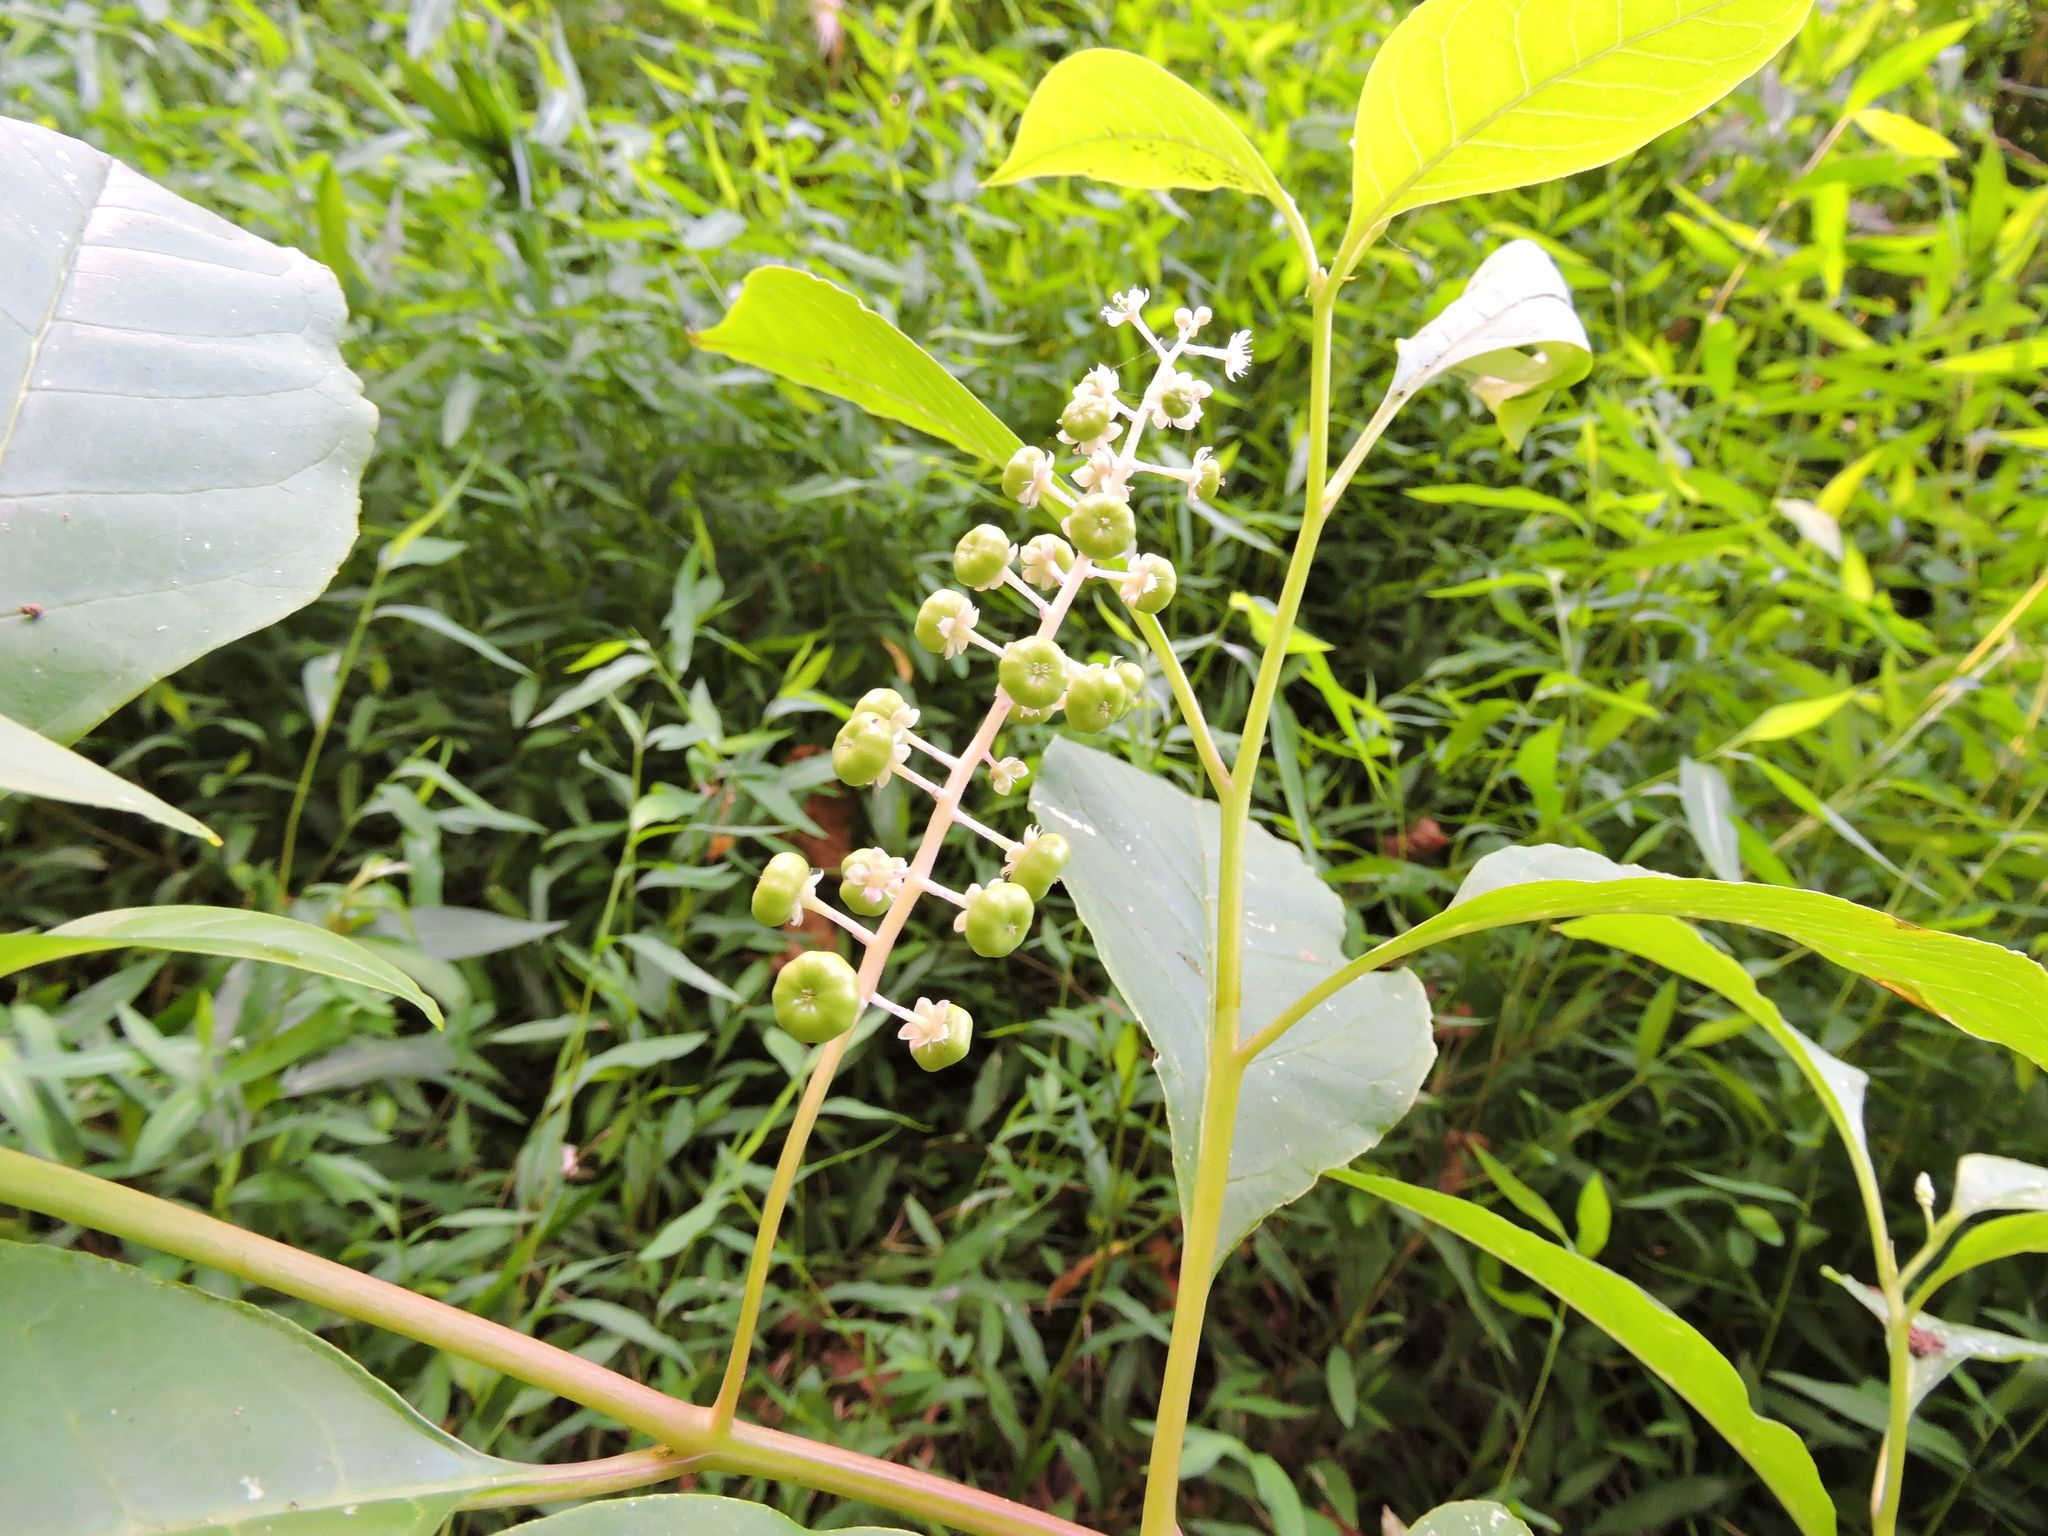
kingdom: Plantae
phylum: Tracheophyta
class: Magnoliopsida
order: Caryophyllales
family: Phytolaccaceae
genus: Phytolacca
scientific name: Phytolacca americana
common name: American pokeweed
